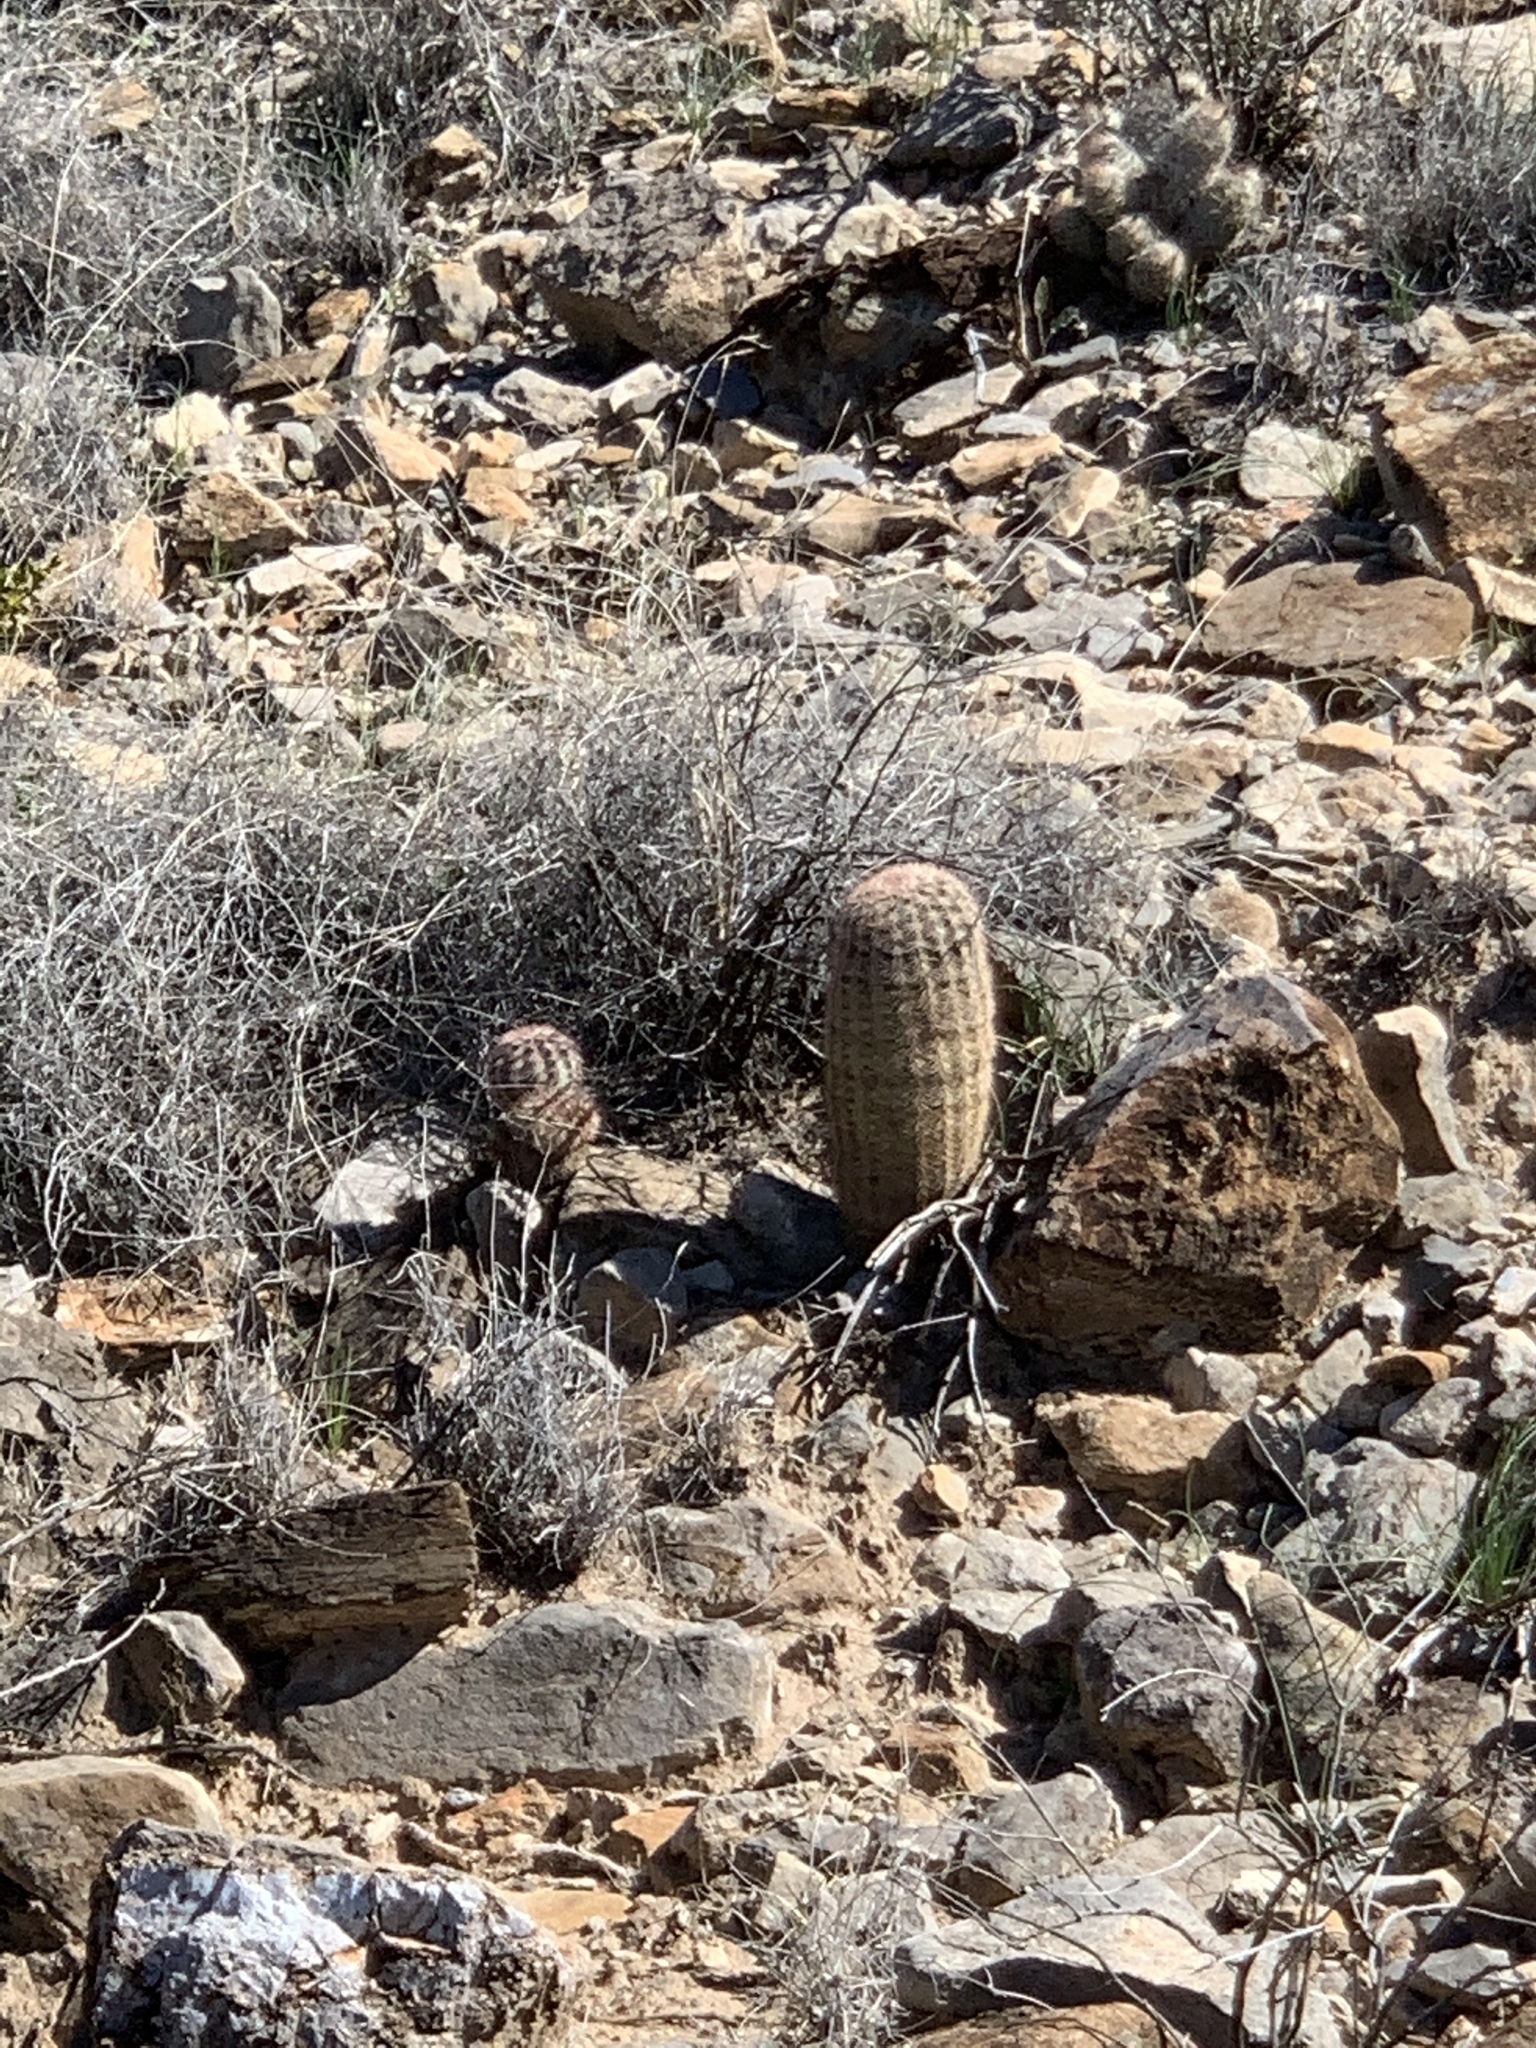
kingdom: Plantae
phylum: Tracheophyta
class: Magnoliopsida
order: Caryophyllales
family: Cactaceae
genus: Echinocereus
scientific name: Echinocereus dasyacanthus
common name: Spiny hedgehog cactus
